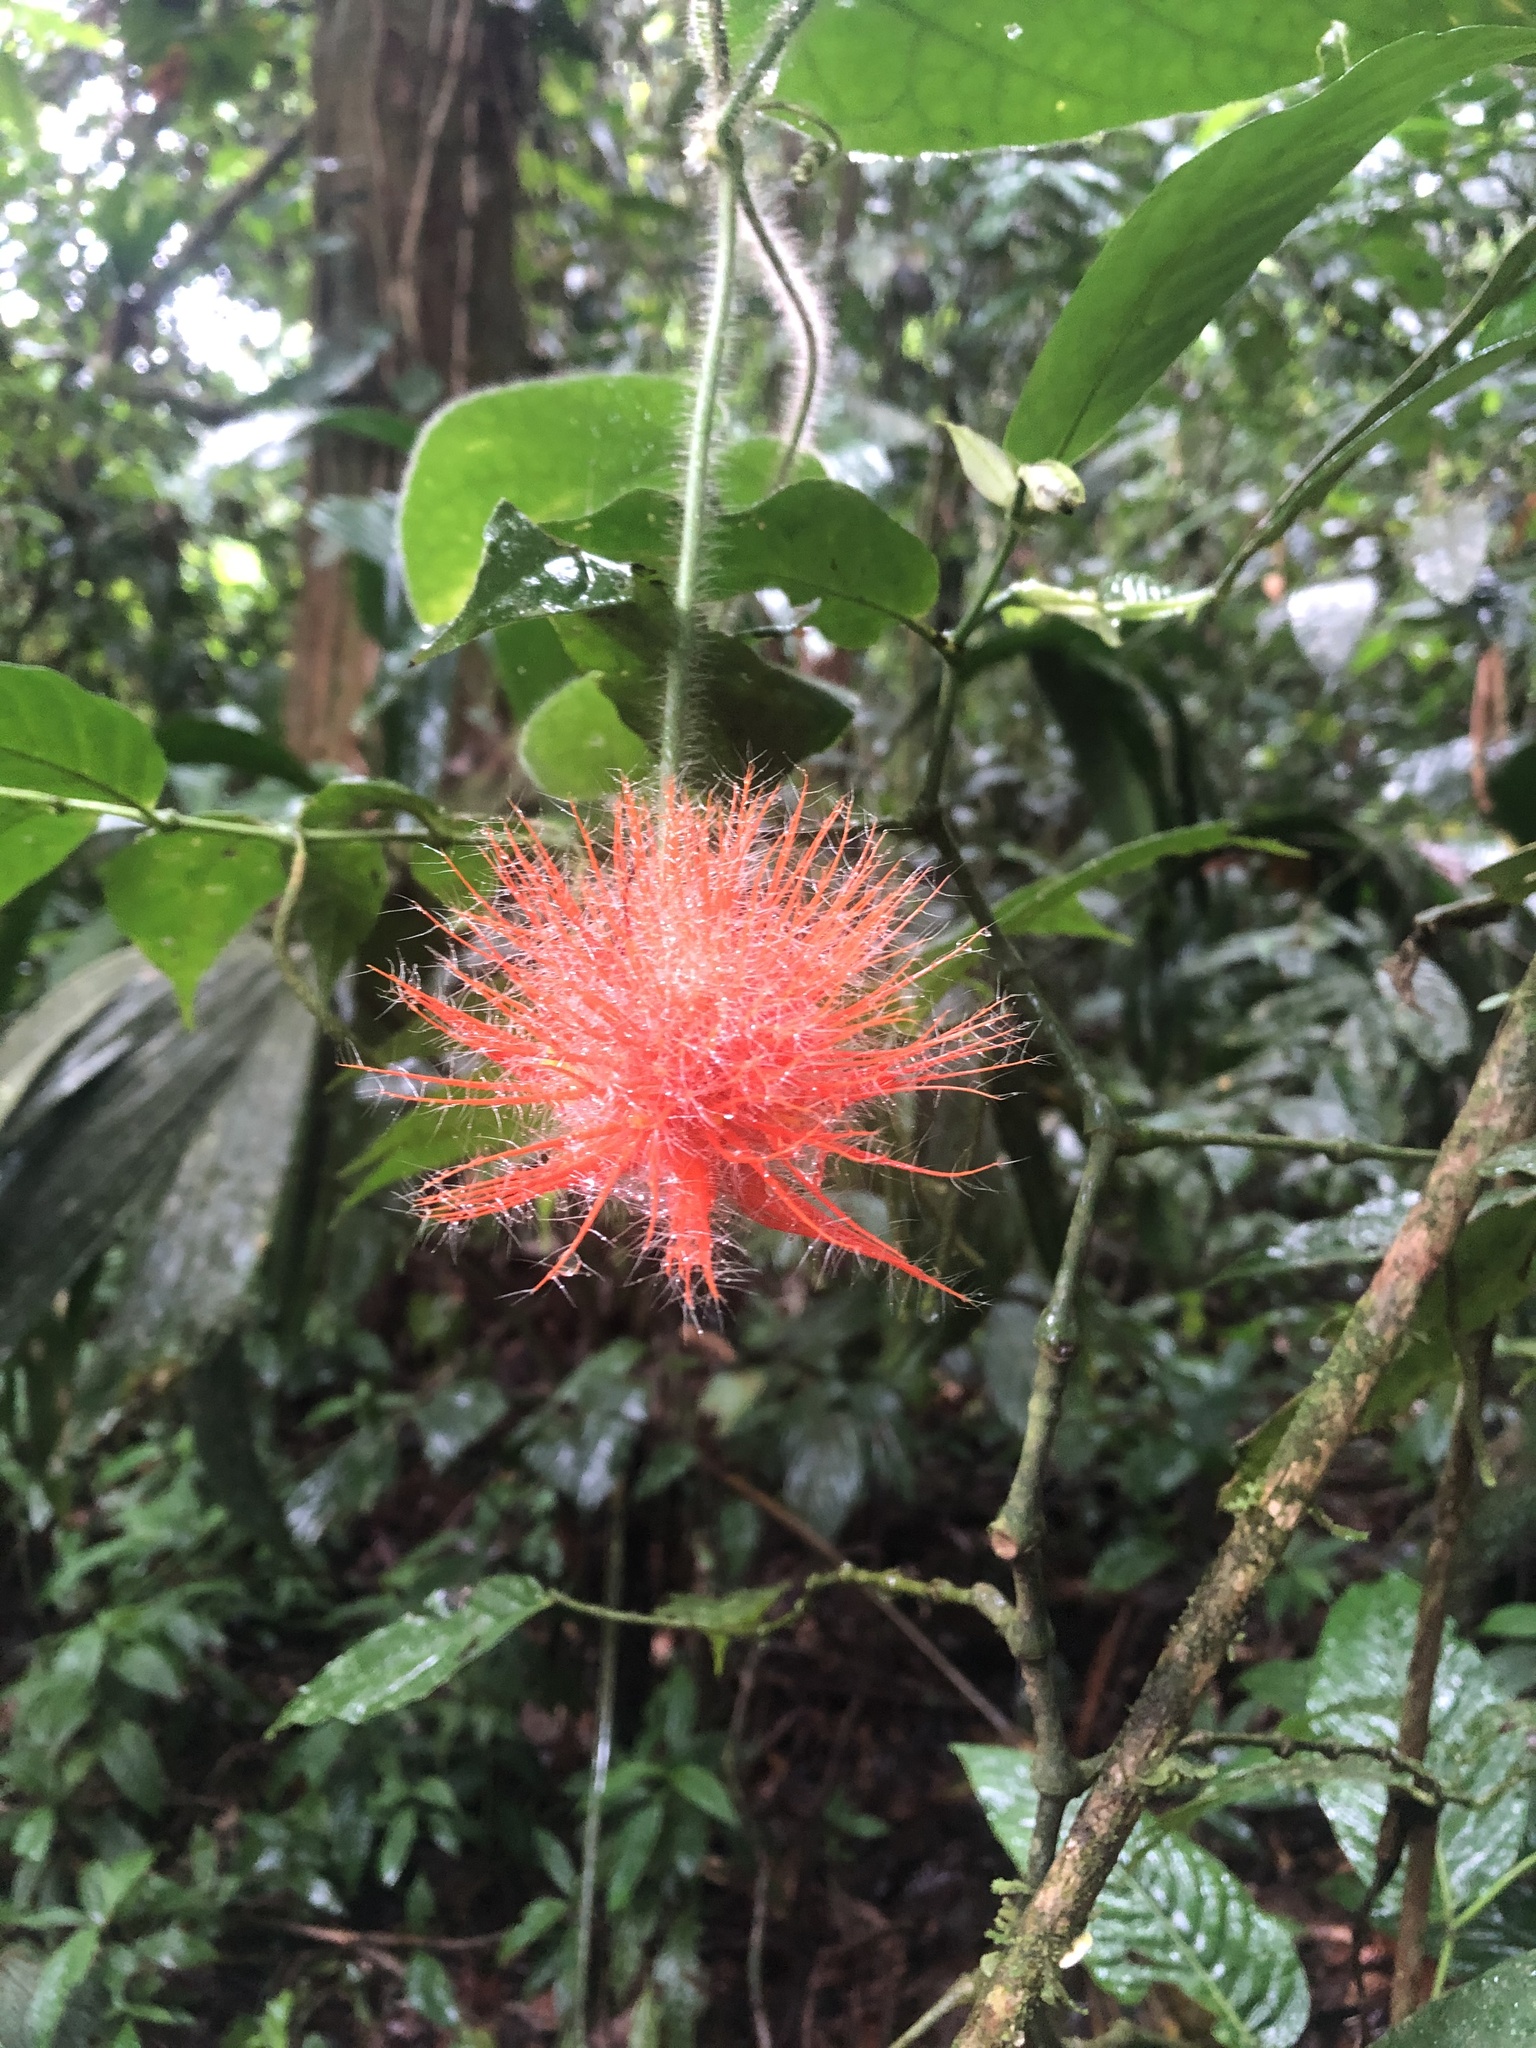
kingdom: Plantae
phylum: Tracheophyta
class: Magnoliopsida
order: Cucurbitales
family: Cucurbitaceae
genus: Gurania
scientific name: Gurania eriantha
